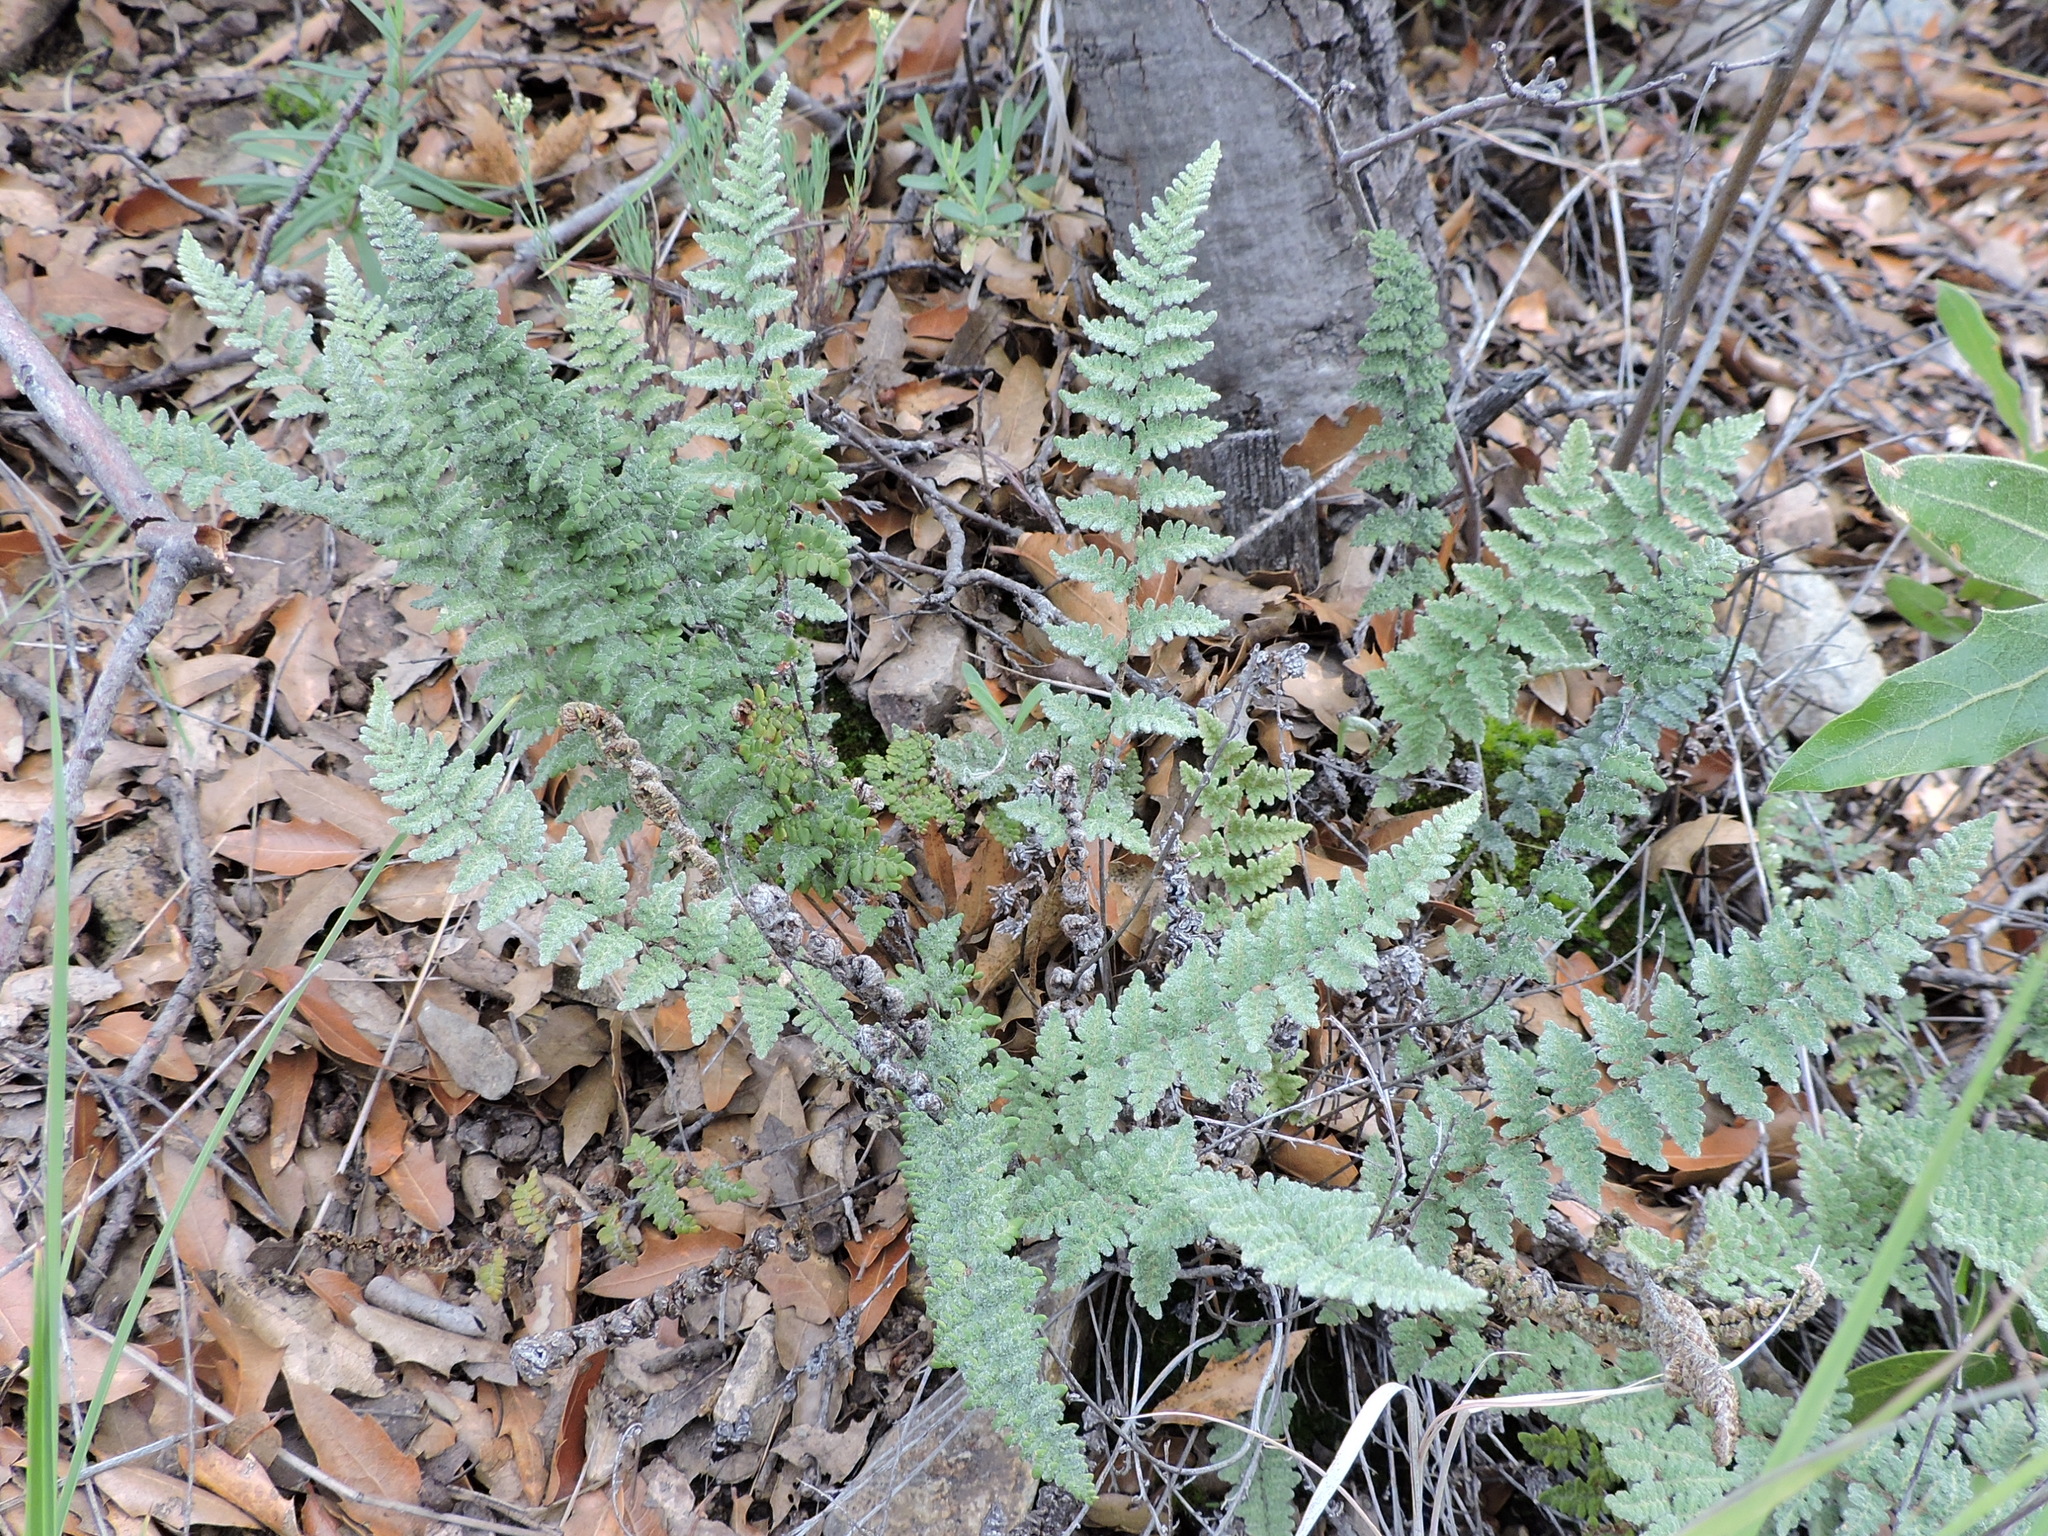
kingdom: Plantae
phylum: Tracheophyta
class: Polypodiopsida
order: Polypodiales
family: Pteridaceae
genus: Myriopteris
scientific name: Myriopteris rufa
